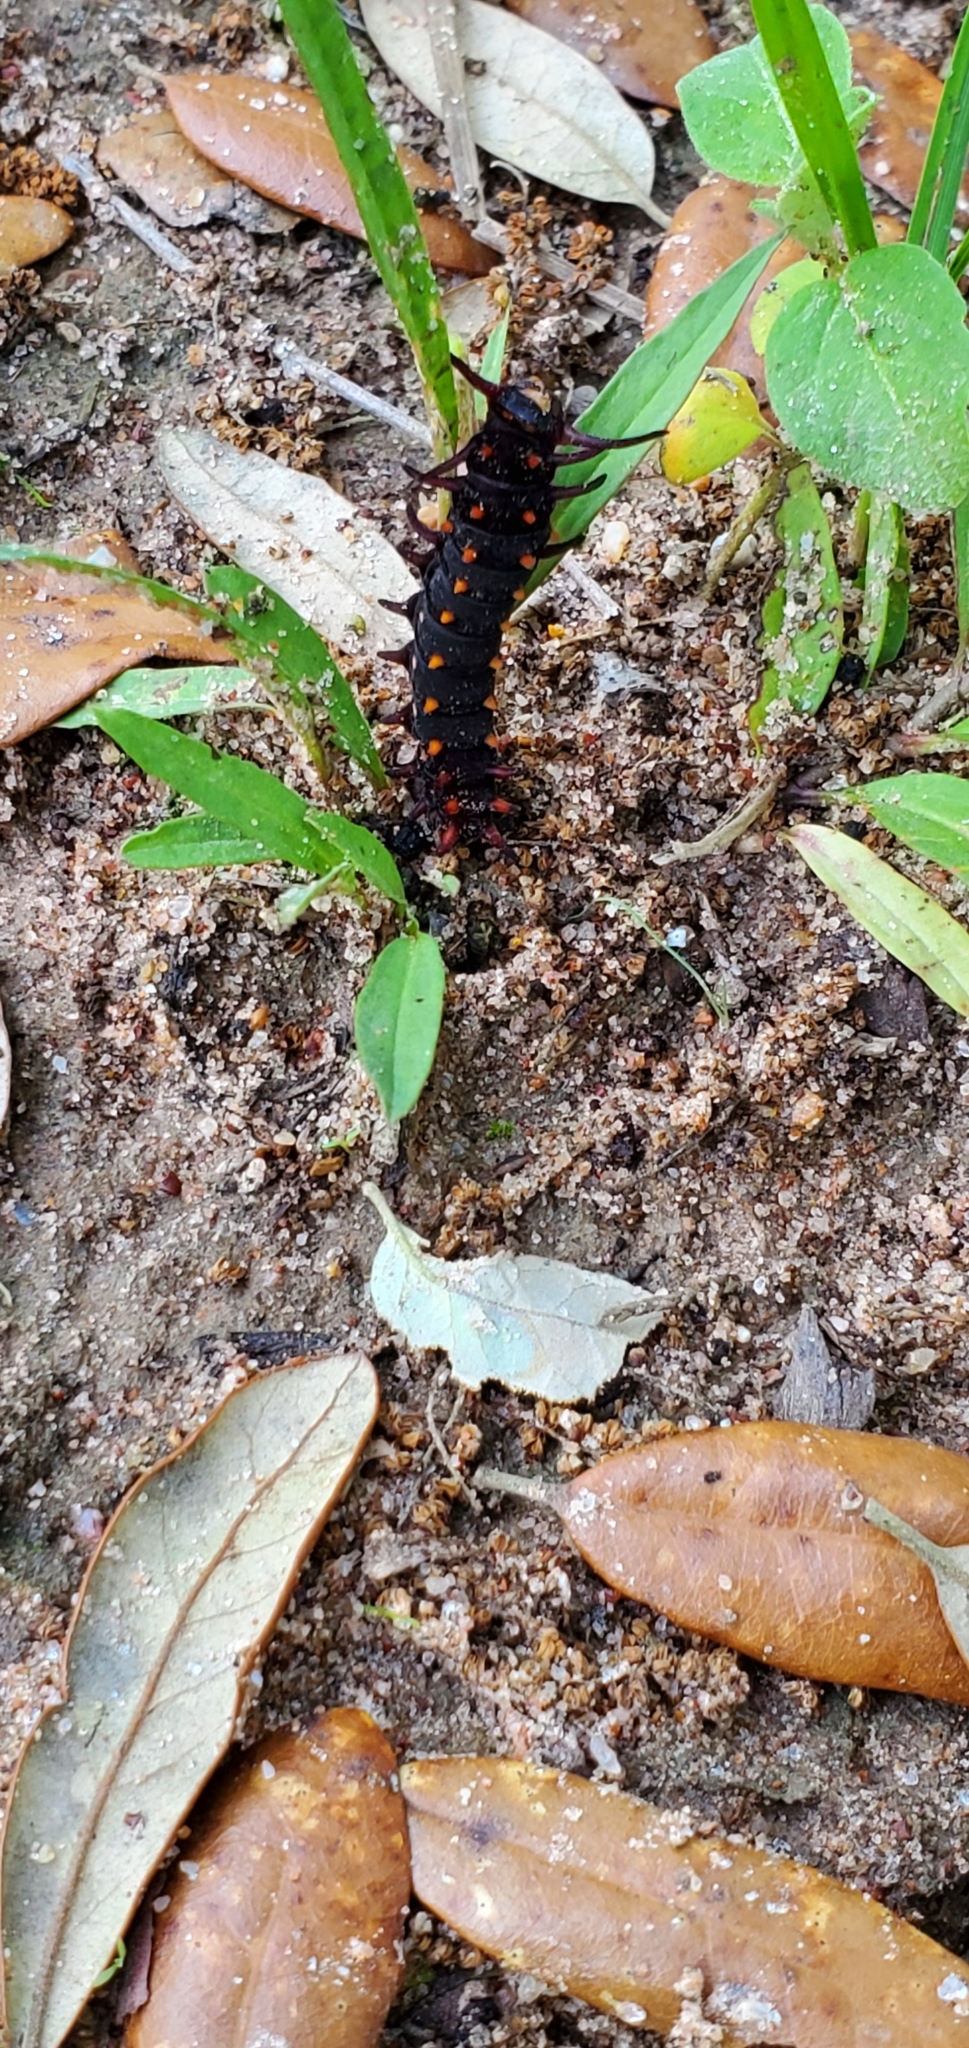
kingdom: Animalia
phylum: Arthropoda
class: Insecta
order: Lepidoptera
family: Papilionidae
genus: Battus
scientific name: Battus philenor
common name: Pipevine swallowtail
